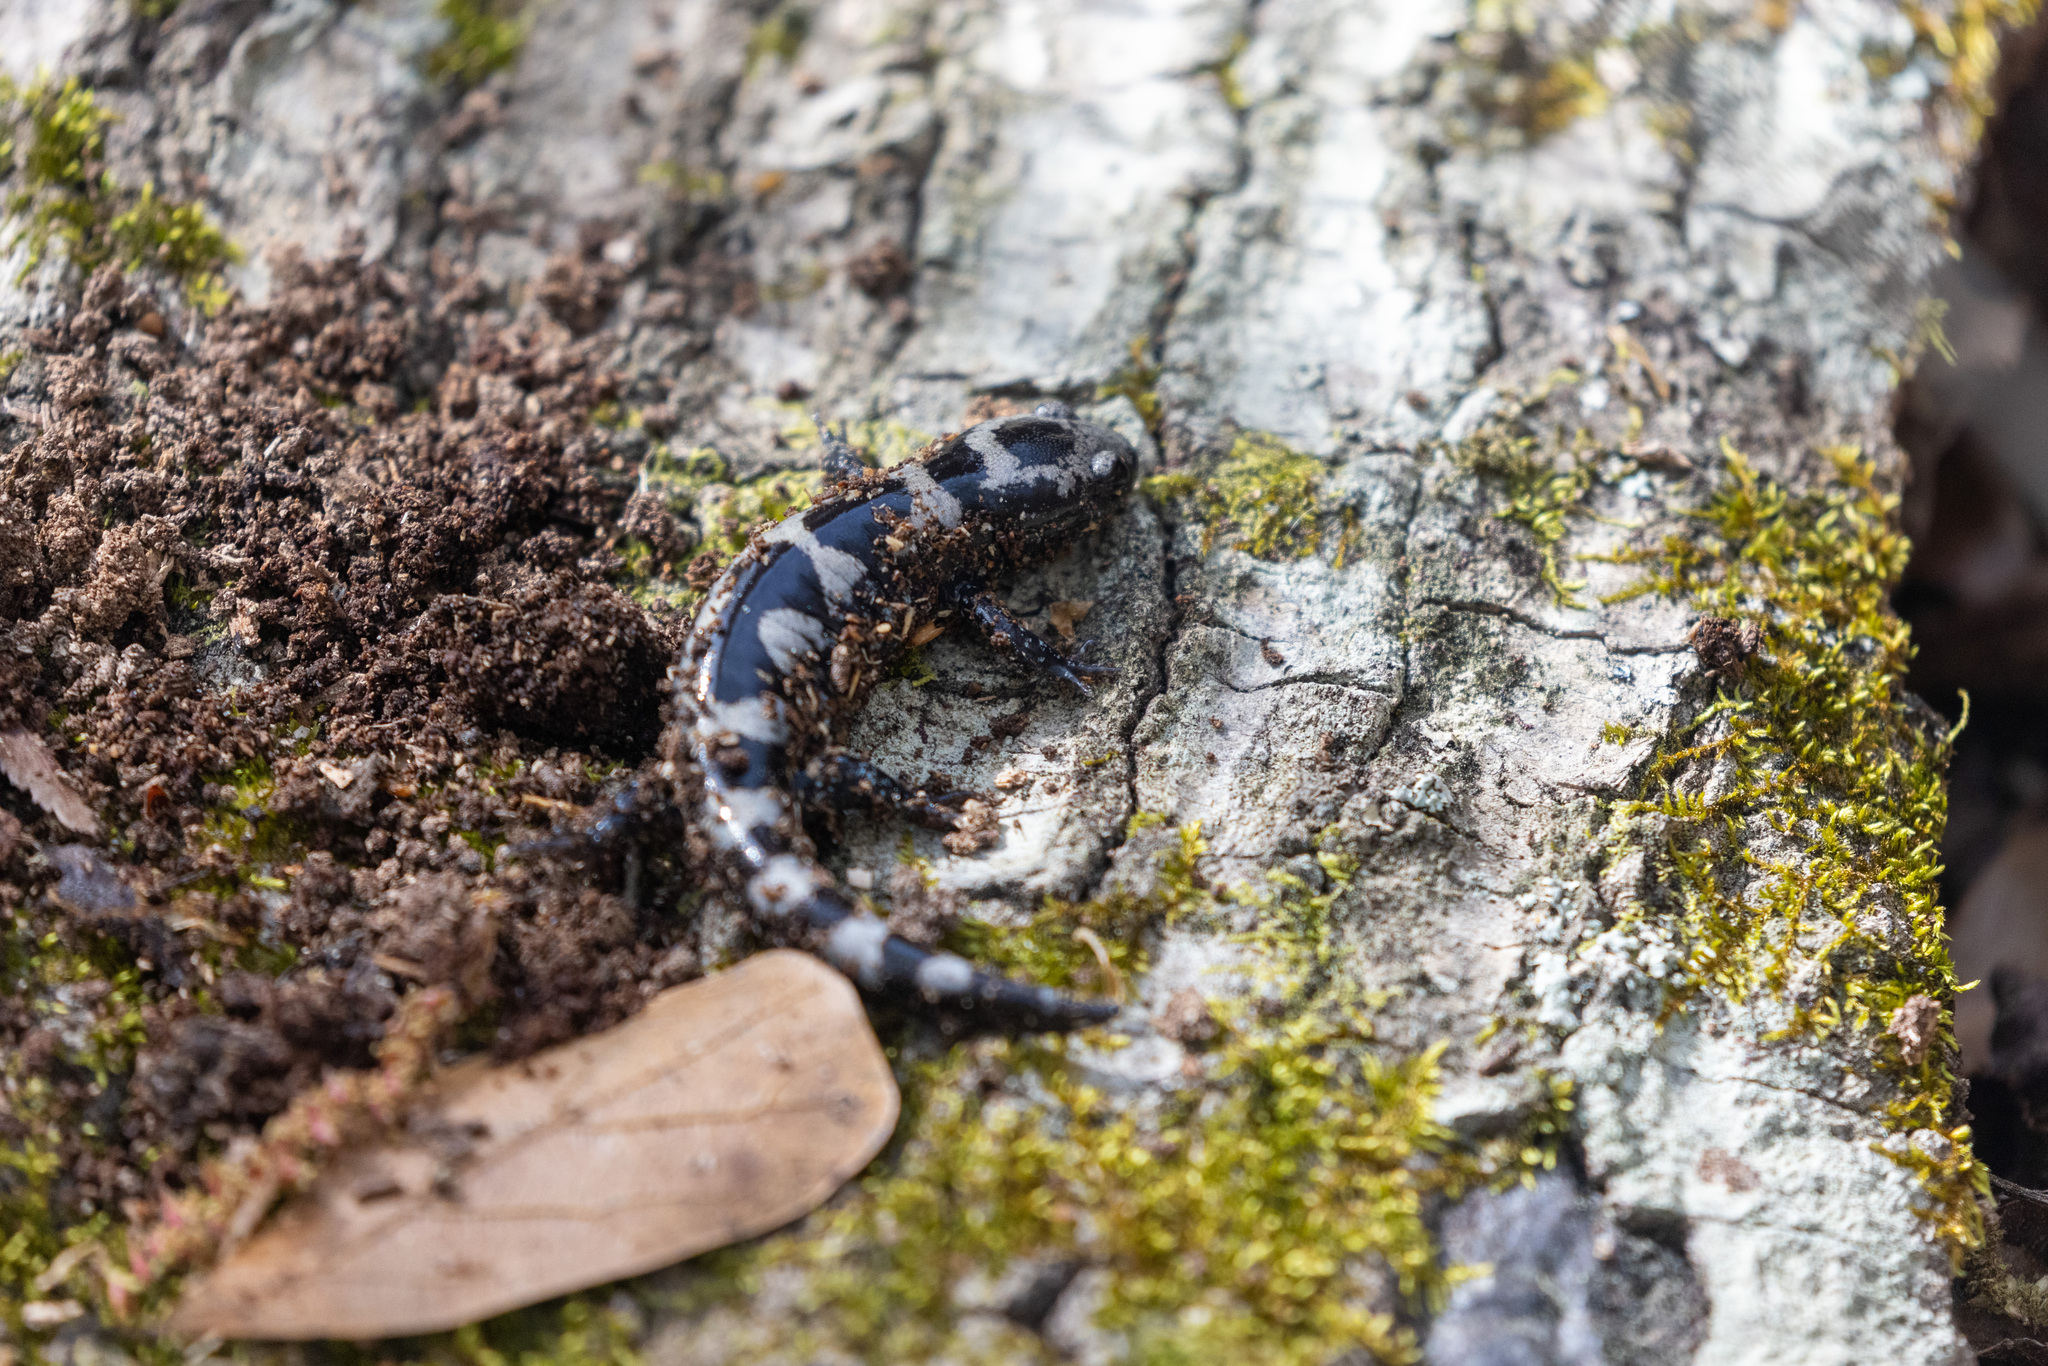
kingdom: Animalia
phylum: Chordata
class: Amphibia
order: Caudata
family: Ambystomatidae
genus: Ambystoma
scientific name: Ambystoma opacum
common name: Marbled salamander
